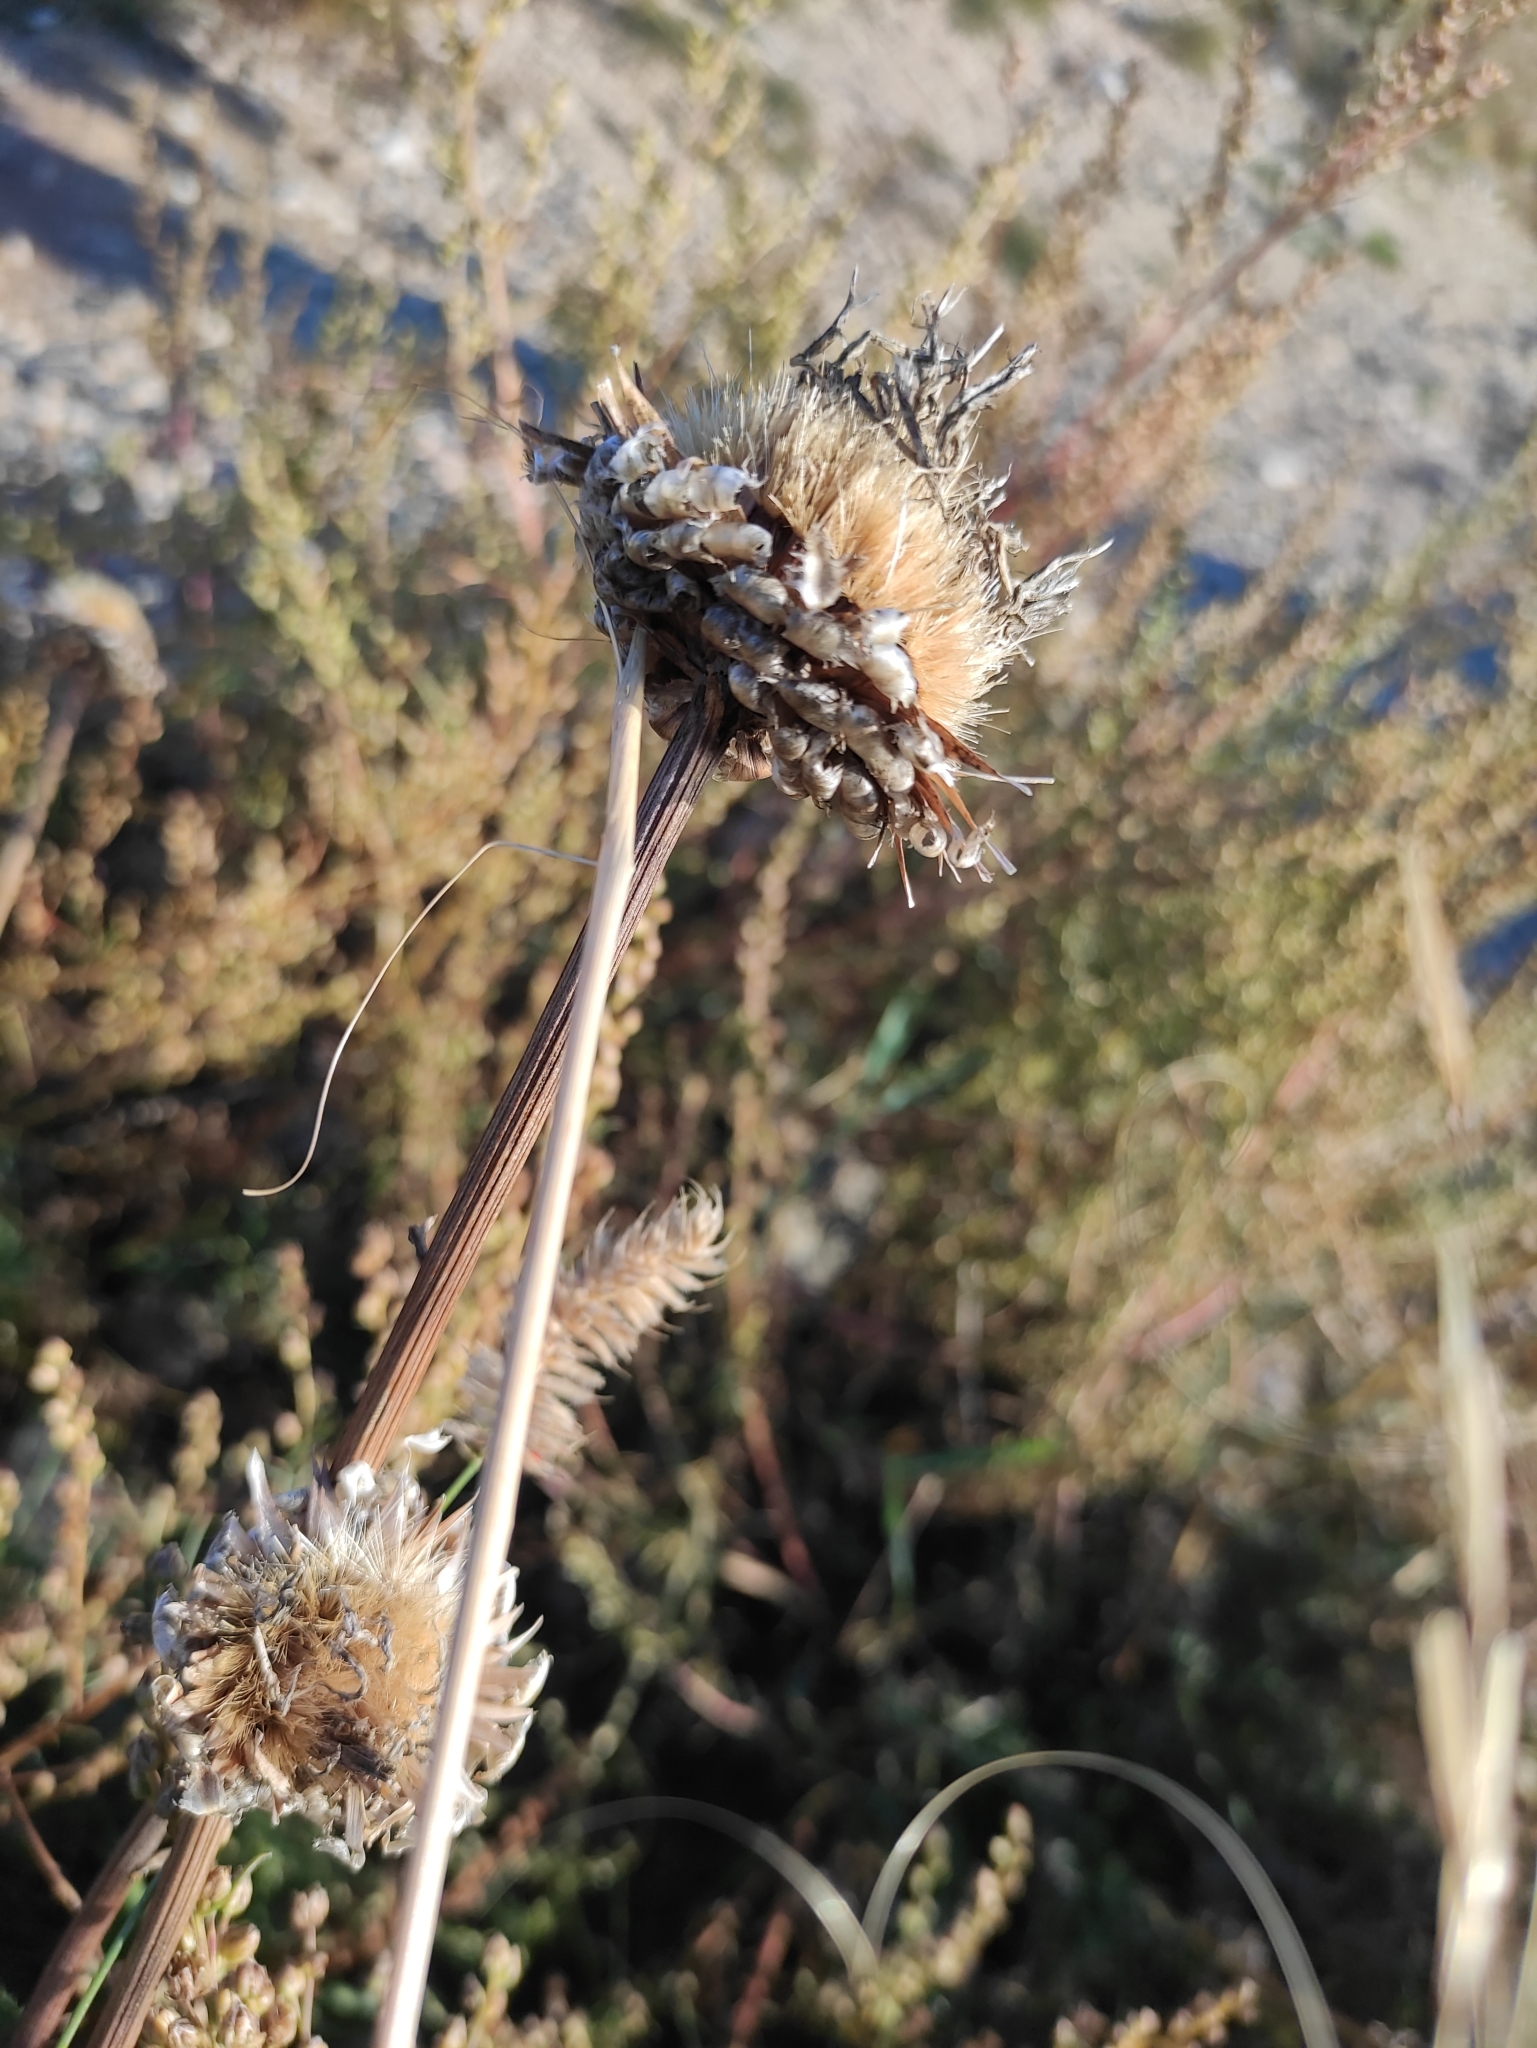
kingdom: Plantae
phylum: Tracheophyta
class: Magnoliopsida
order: Asterales
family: Asteraceae
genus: Leuzea
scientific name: Leuzea uniflora
